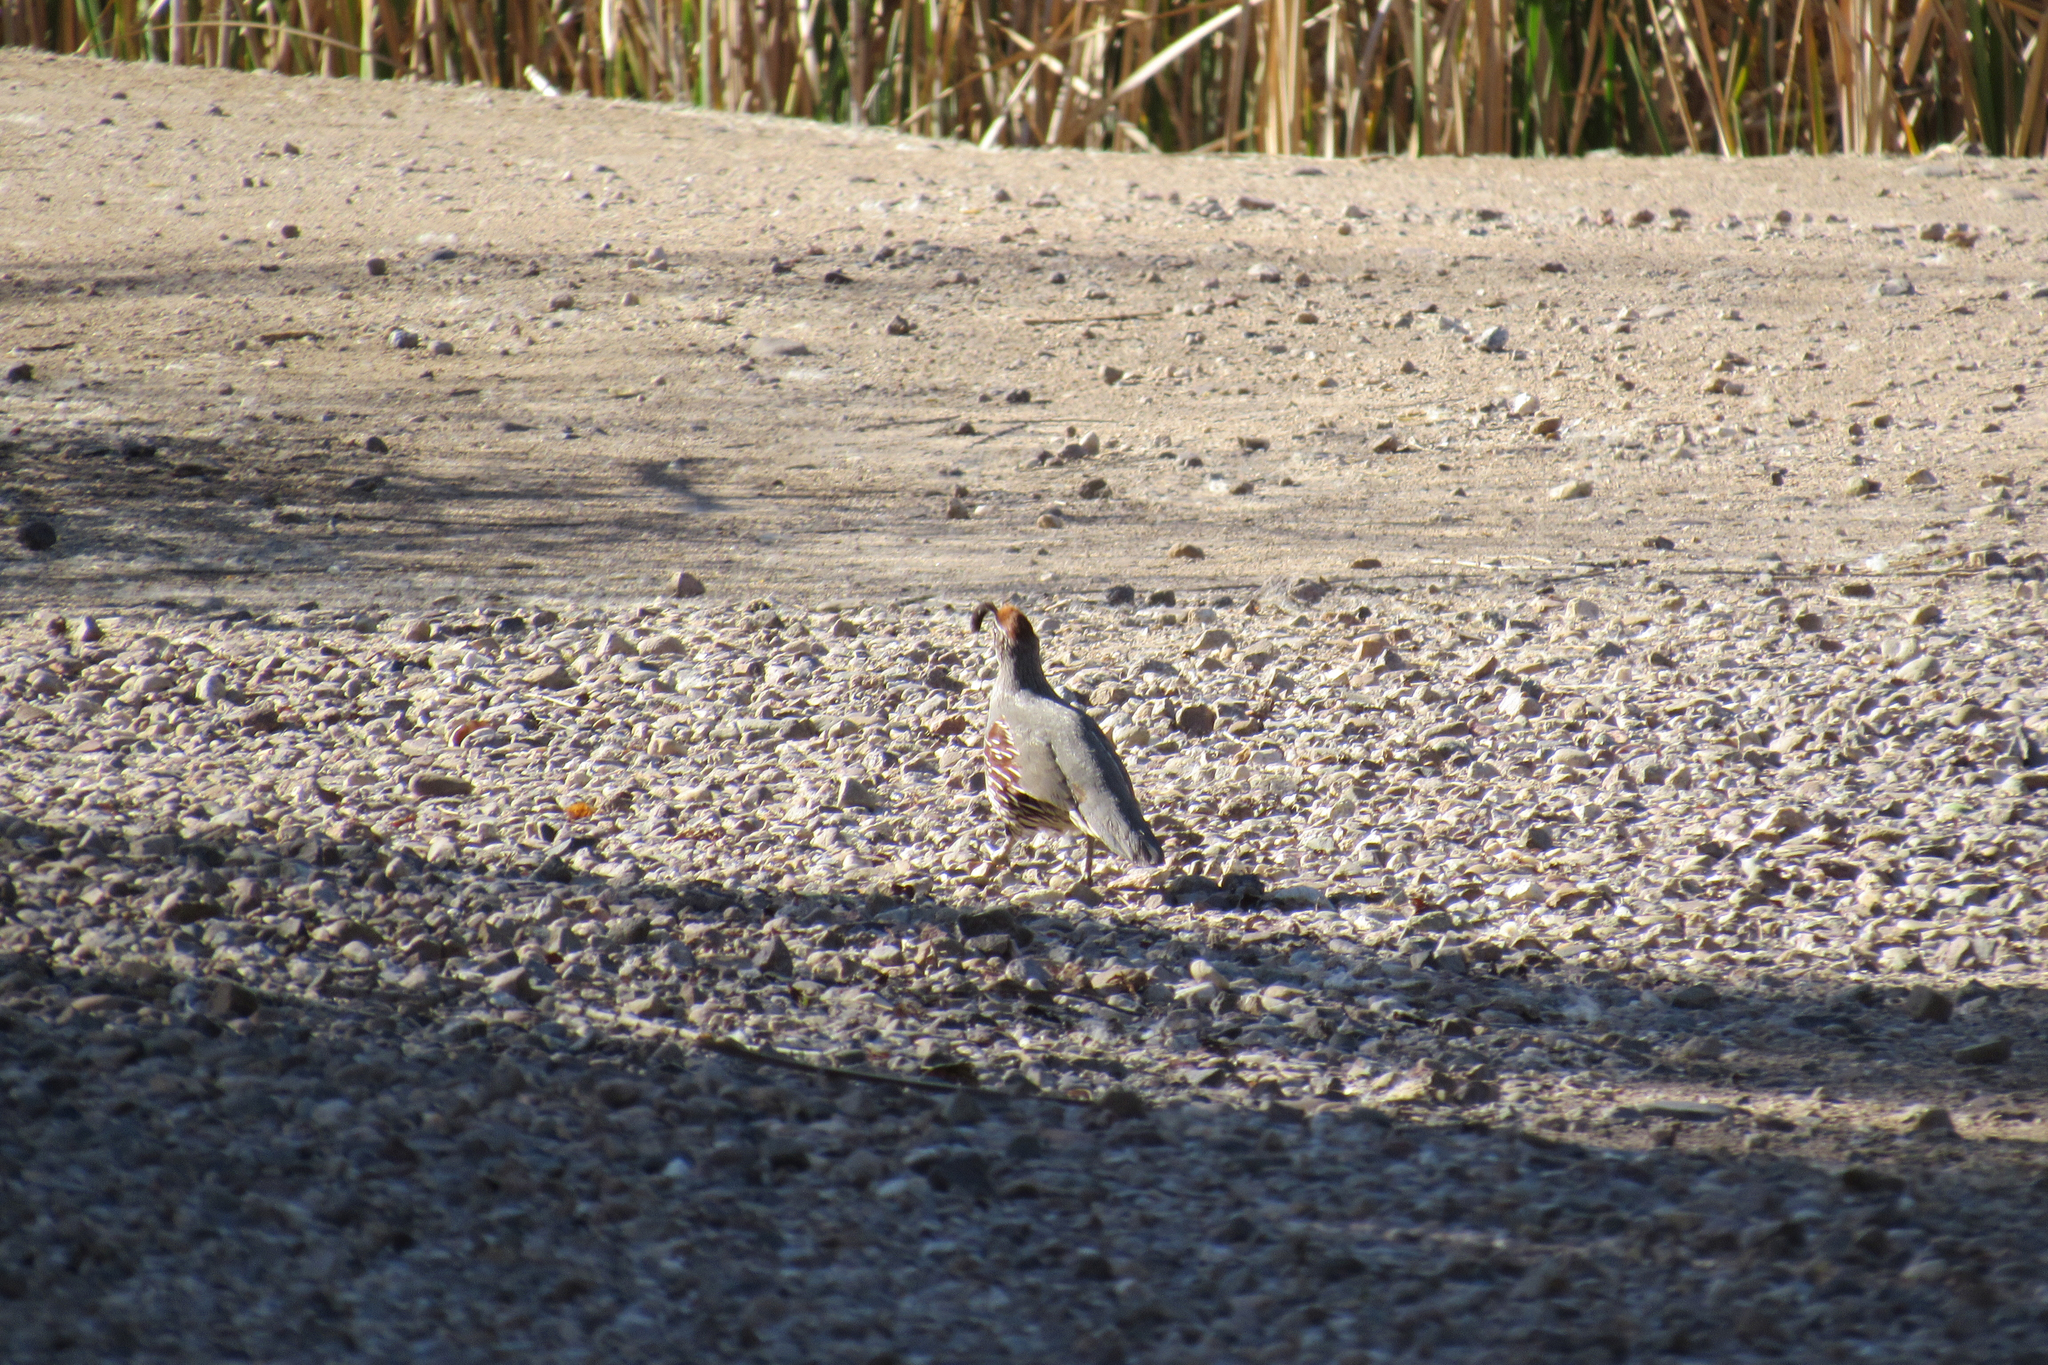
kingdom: Animalia
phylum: Chordata
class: Aves
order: Galliformes
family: Odontophoridae
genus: Callipepla
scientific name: Callipepla gambelii
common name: Gambel's quail
